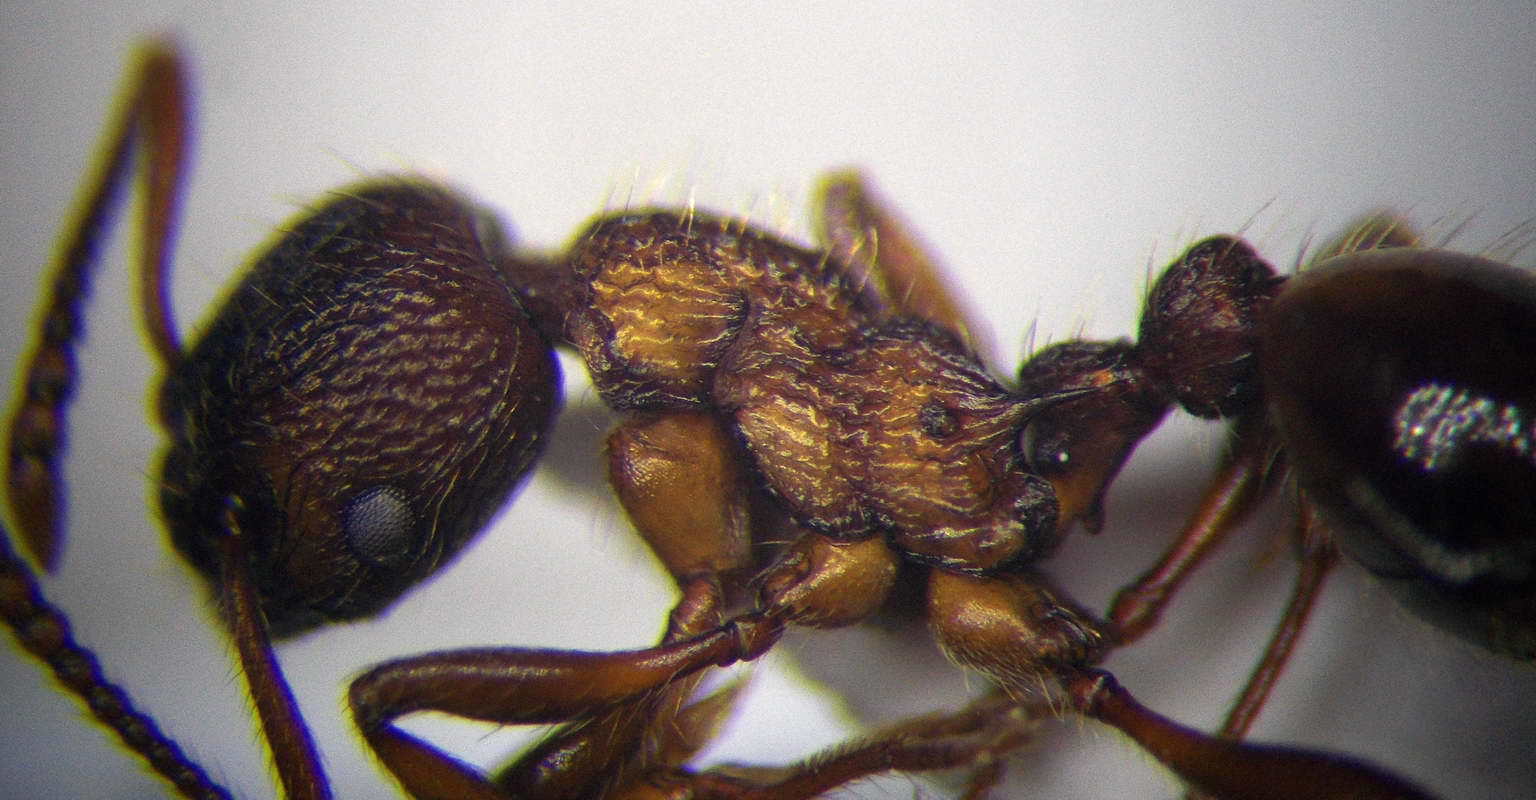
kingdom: Animalia
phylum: Arthropoda
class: Insecta
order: Hymenoptera
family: Formicidae
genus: Myrmica
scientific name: Myrmica bergi
